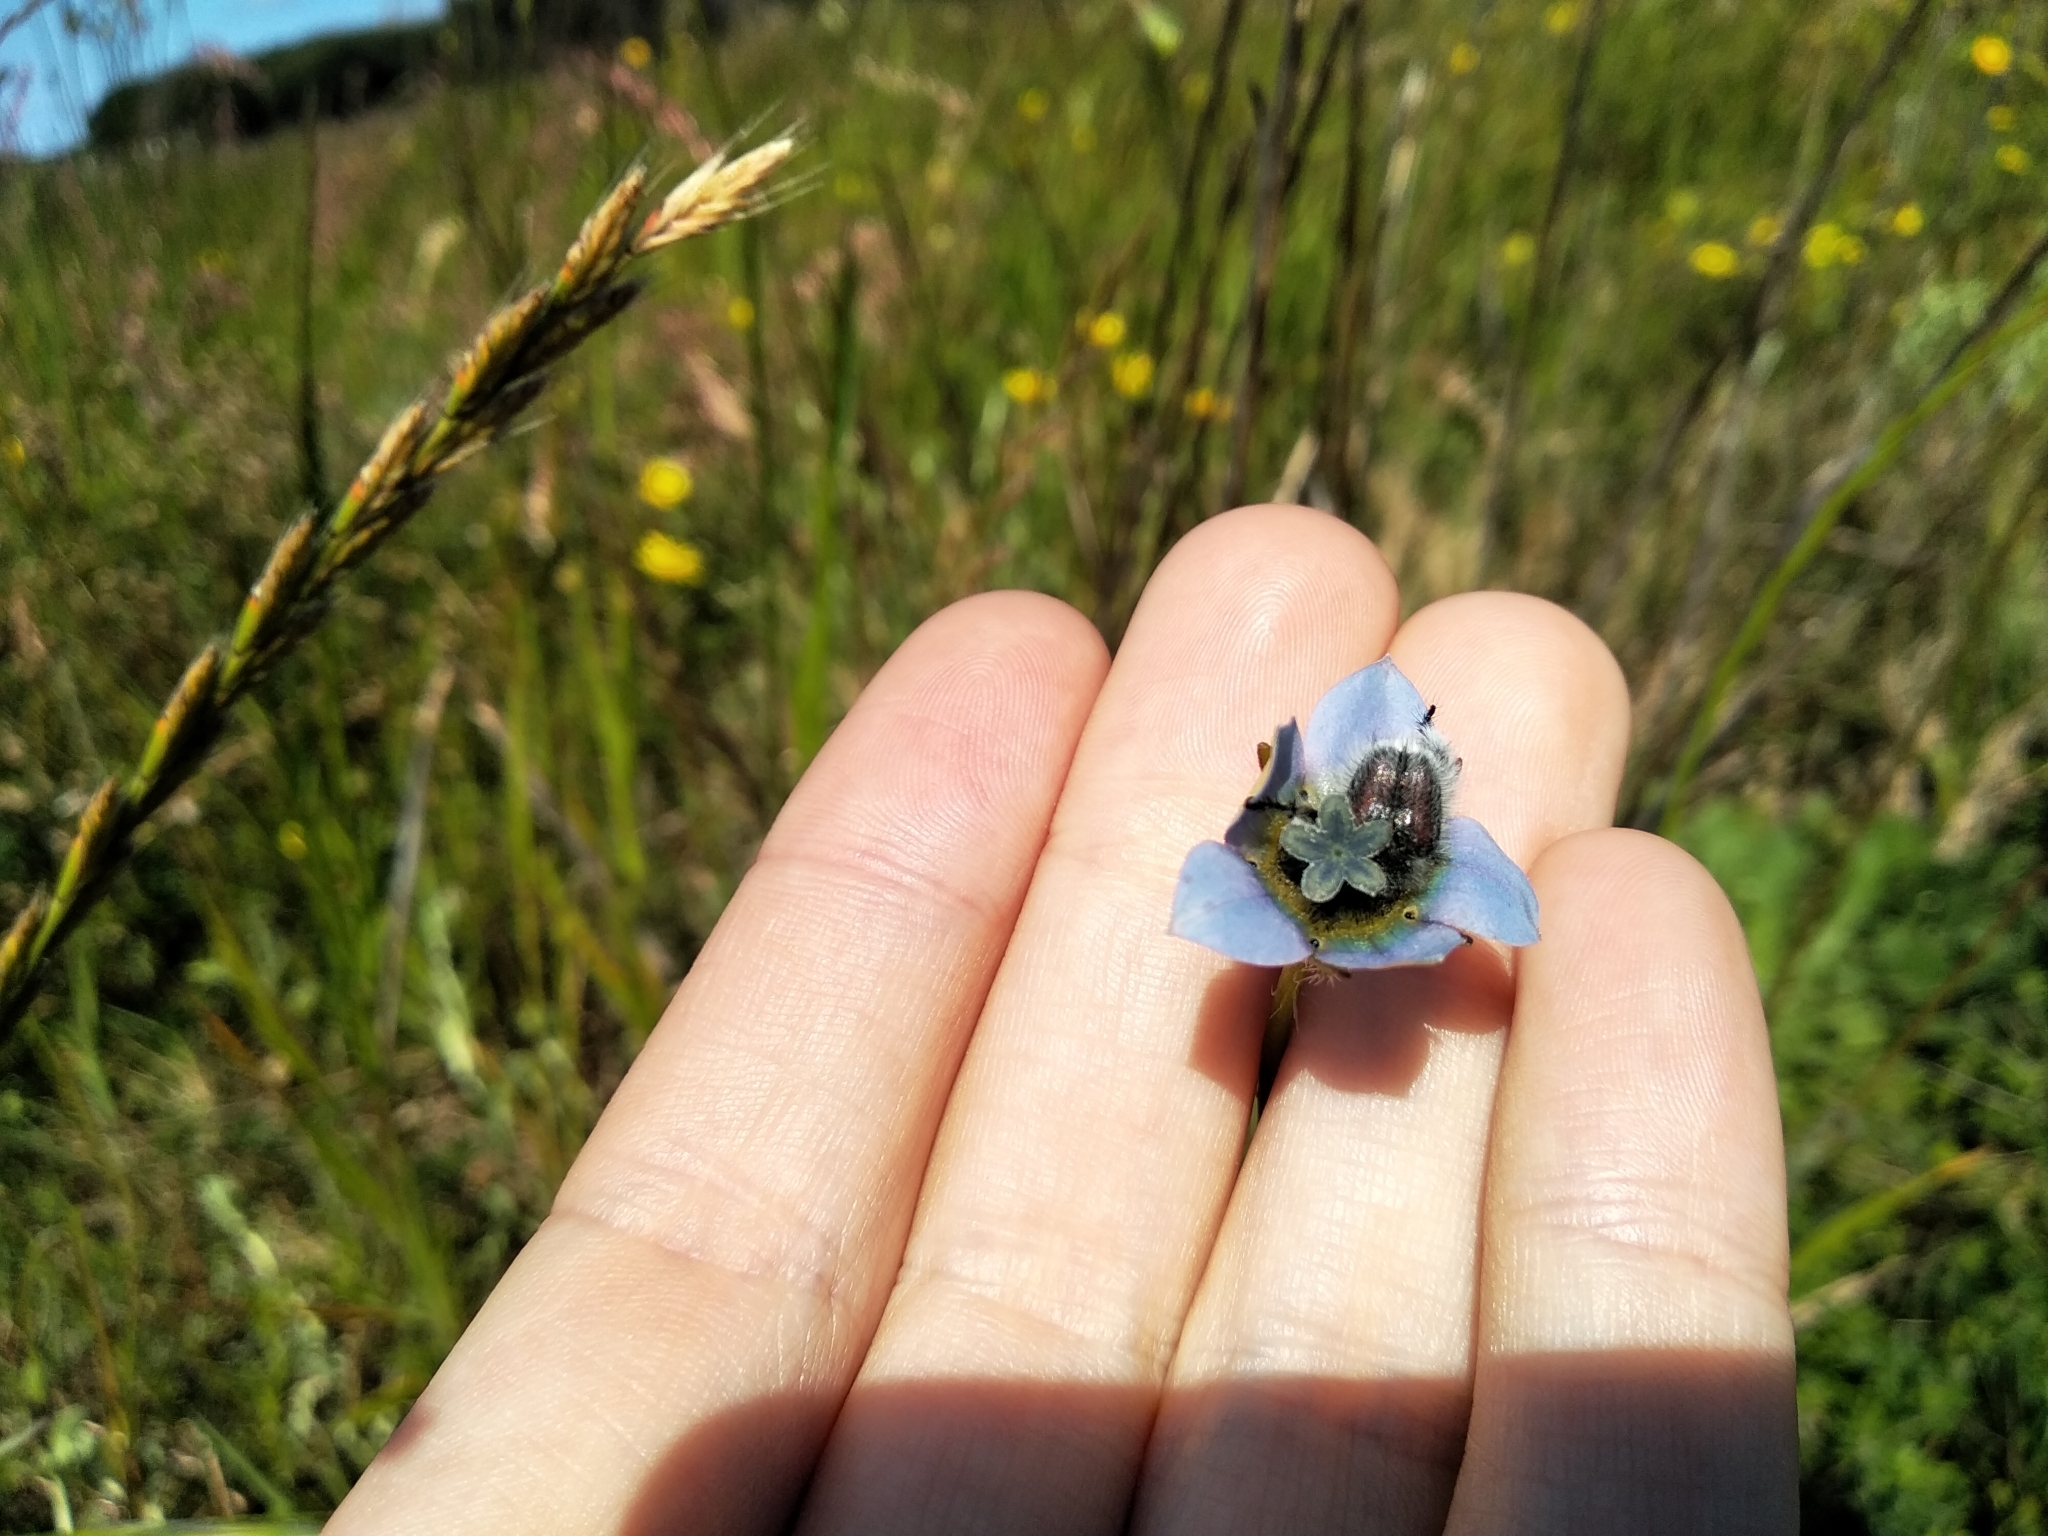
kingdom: Plantae
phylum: Tracheophyta
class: Magnoliopsida
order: Asterales
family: Campanulaceae
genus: Wahlenbergia
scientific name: Wahlenbergia capensis
